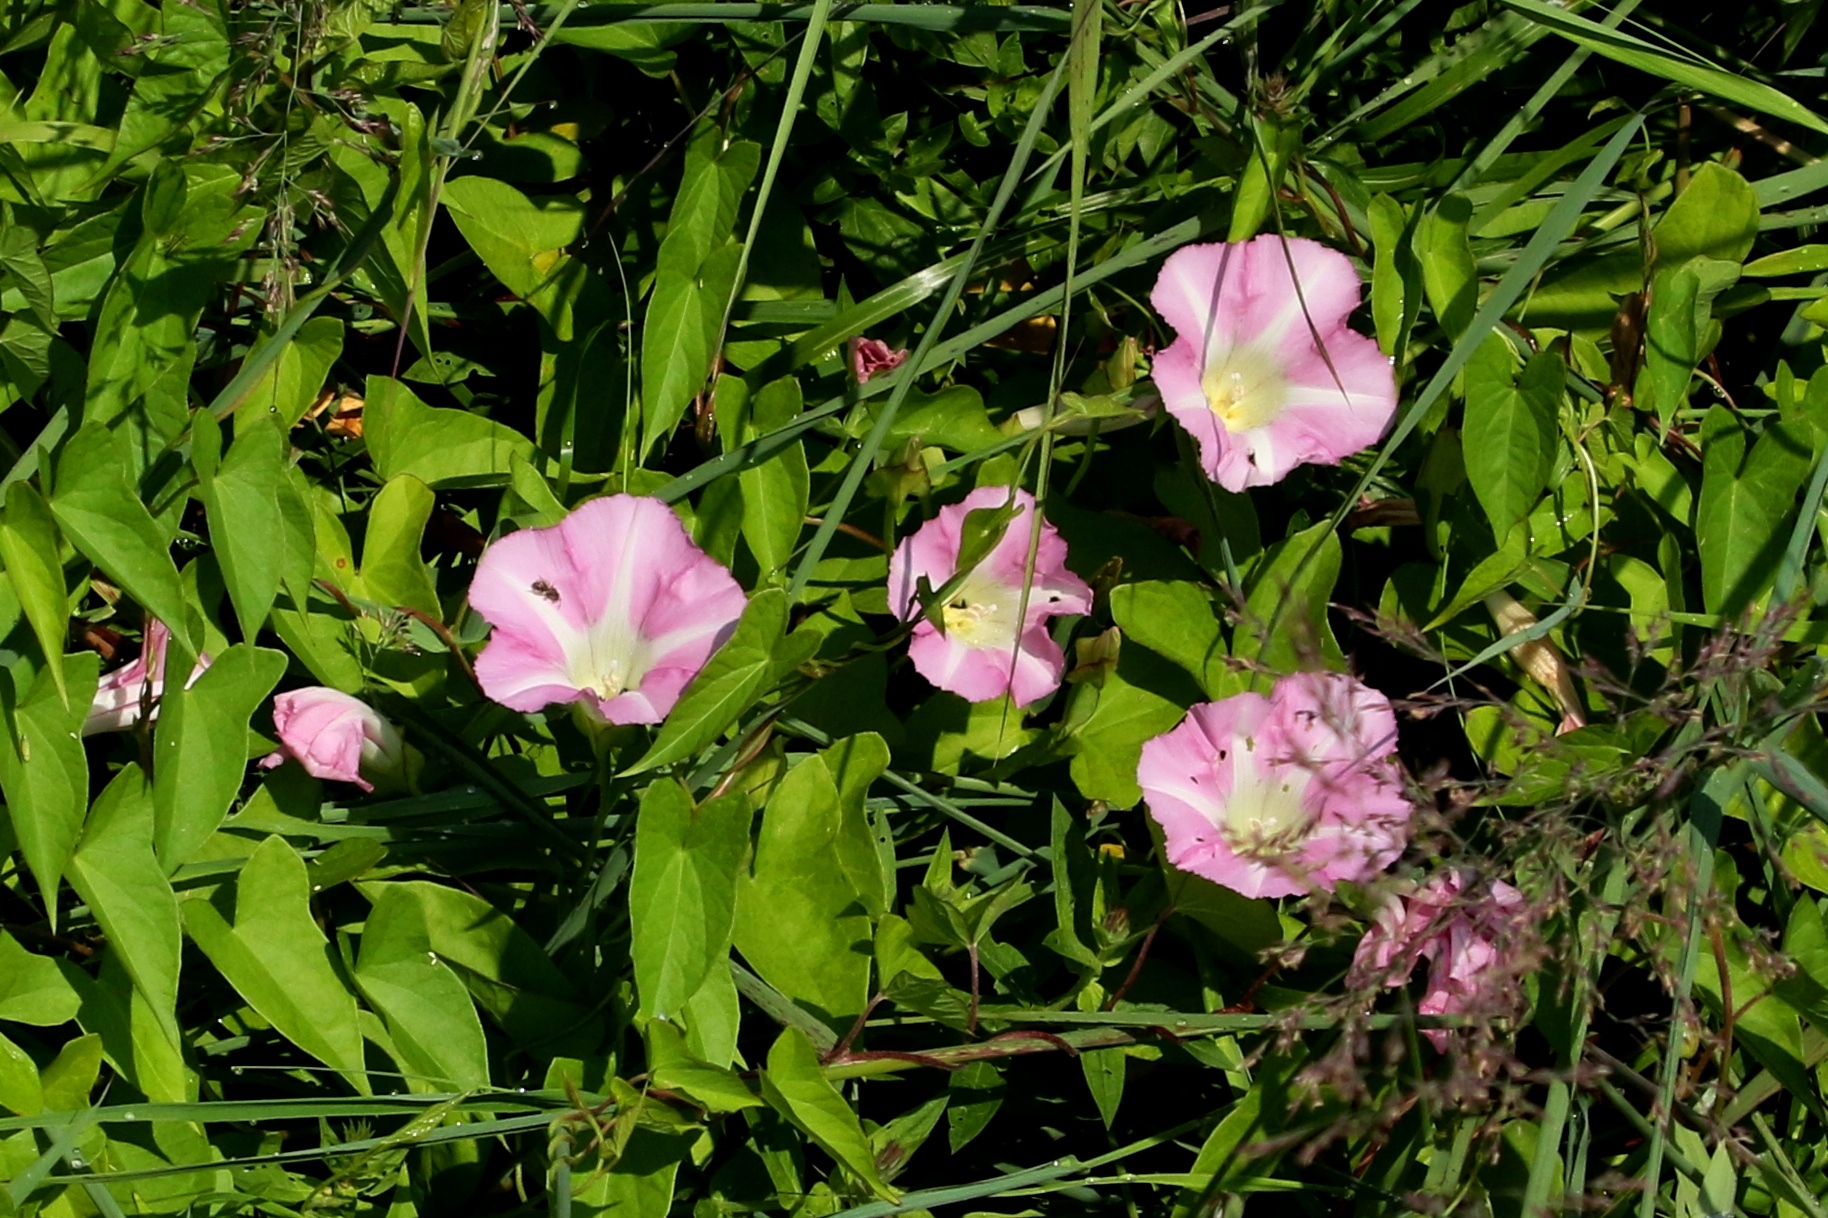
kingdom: Plantae
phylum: Tracheophyta
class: Magnoliopsida
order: Solanales
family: Convolvulaceae
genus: Convolvulus
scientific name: Convolvulus arvensis
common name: Field bindweed
